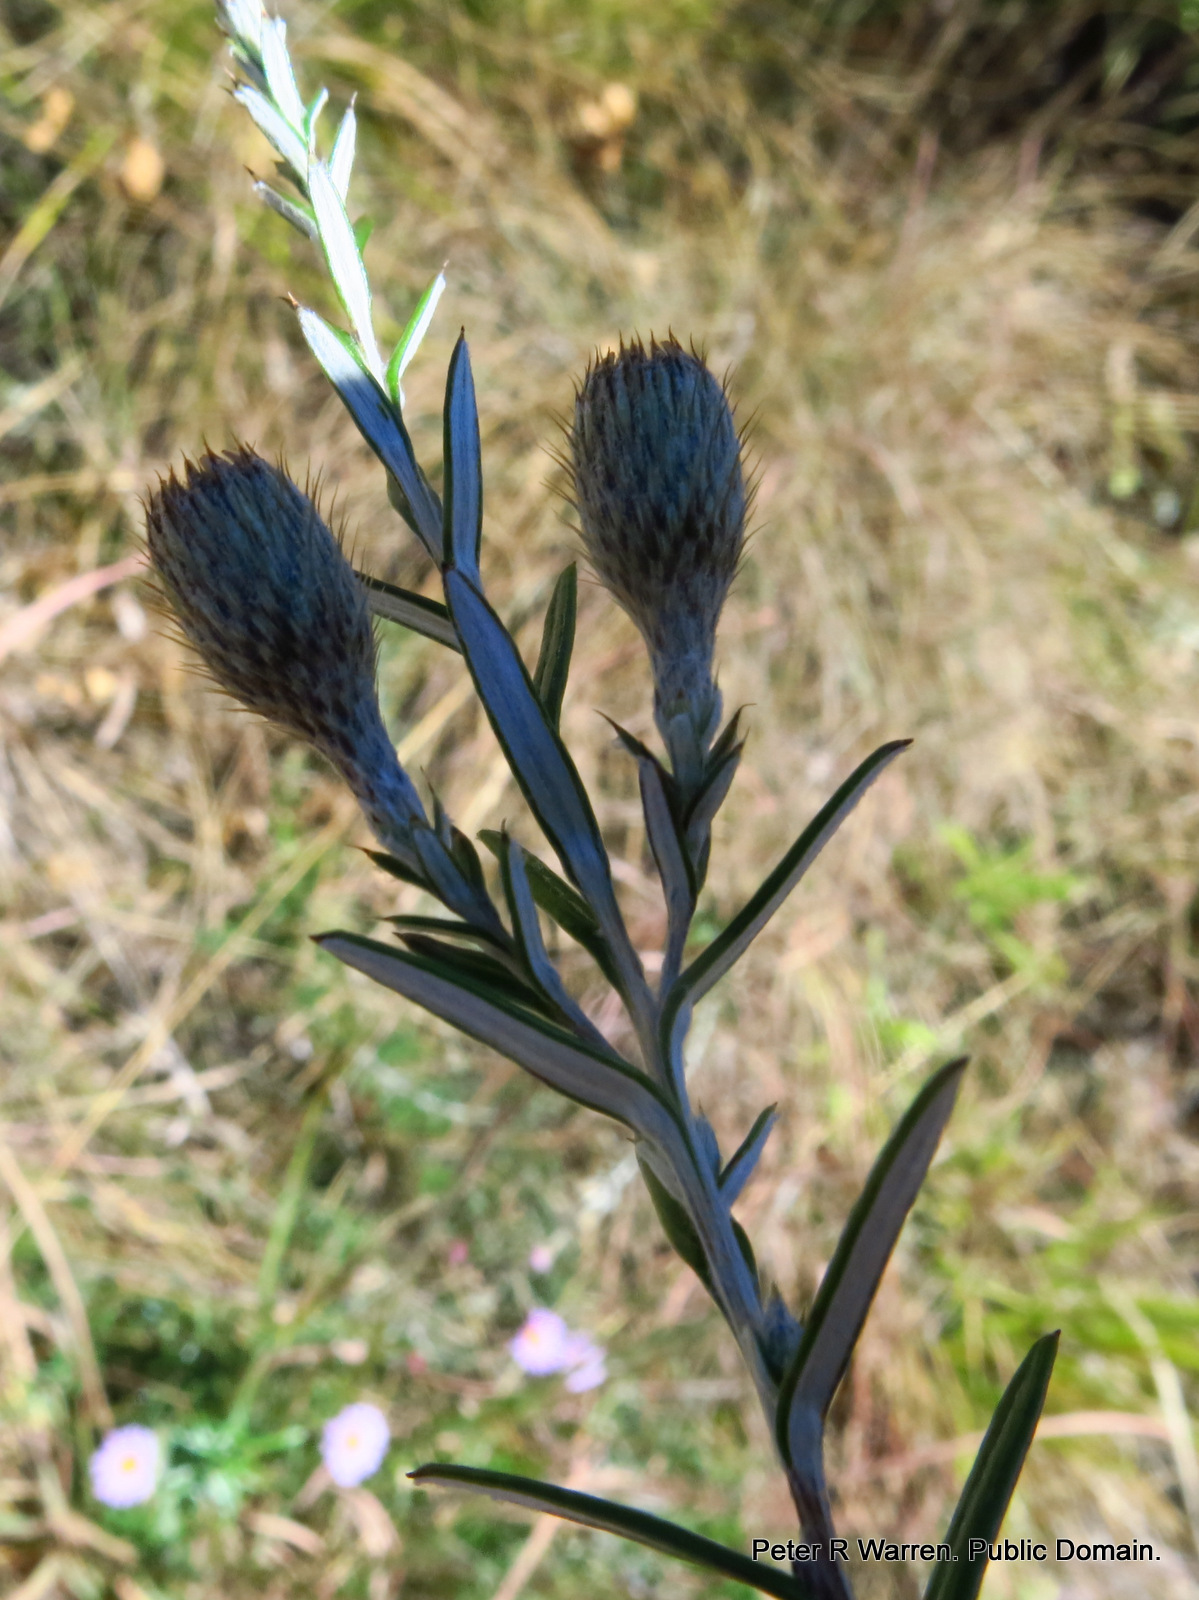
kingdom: Plantae
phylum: Tracheophyta
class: Magnoliopsida
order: Asterales
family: Asteraceae
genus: Athrixia
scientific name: Athrixia arachnoidea
